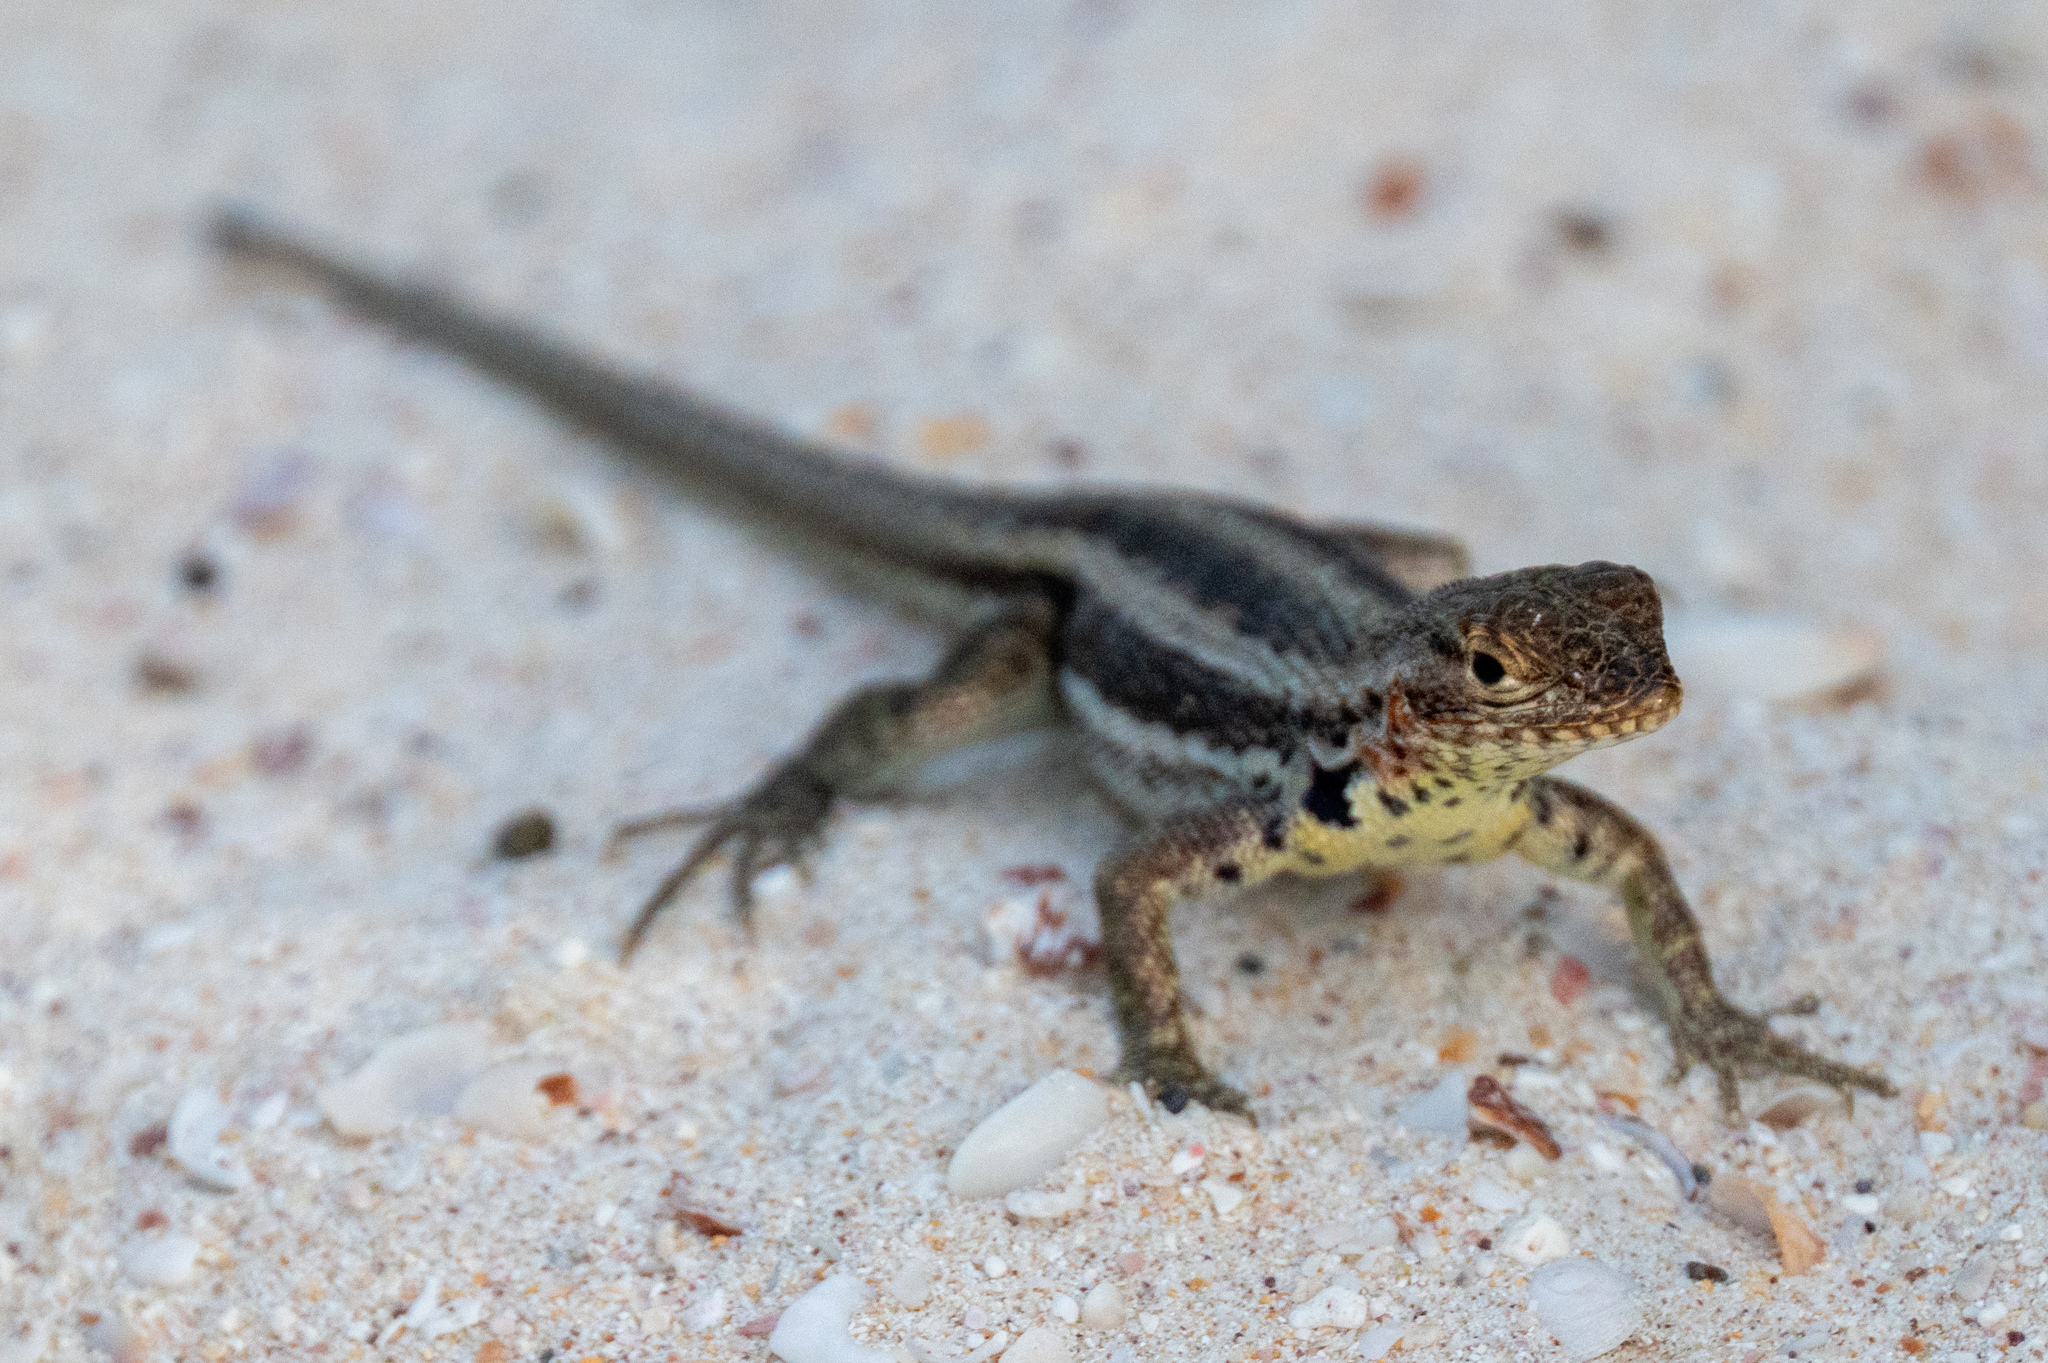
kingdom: Animalia
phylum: Chordata
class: Squamata
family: Tropiduridae
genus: Microlophus
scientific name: Microlophus indefatigabilis
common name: Galapagos lava lizard
